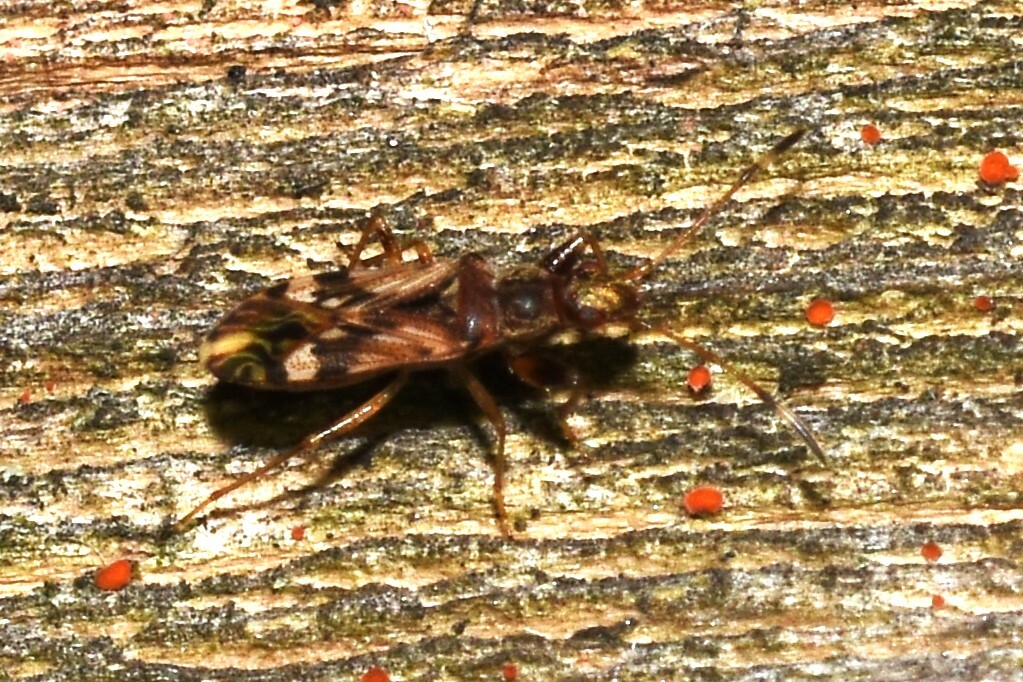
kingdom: Animalia
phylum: Arthropoda
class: Insecta
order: Hemiptera
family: Rhyparochromidae
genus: Neopamera
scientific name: Neopamera albocincta
